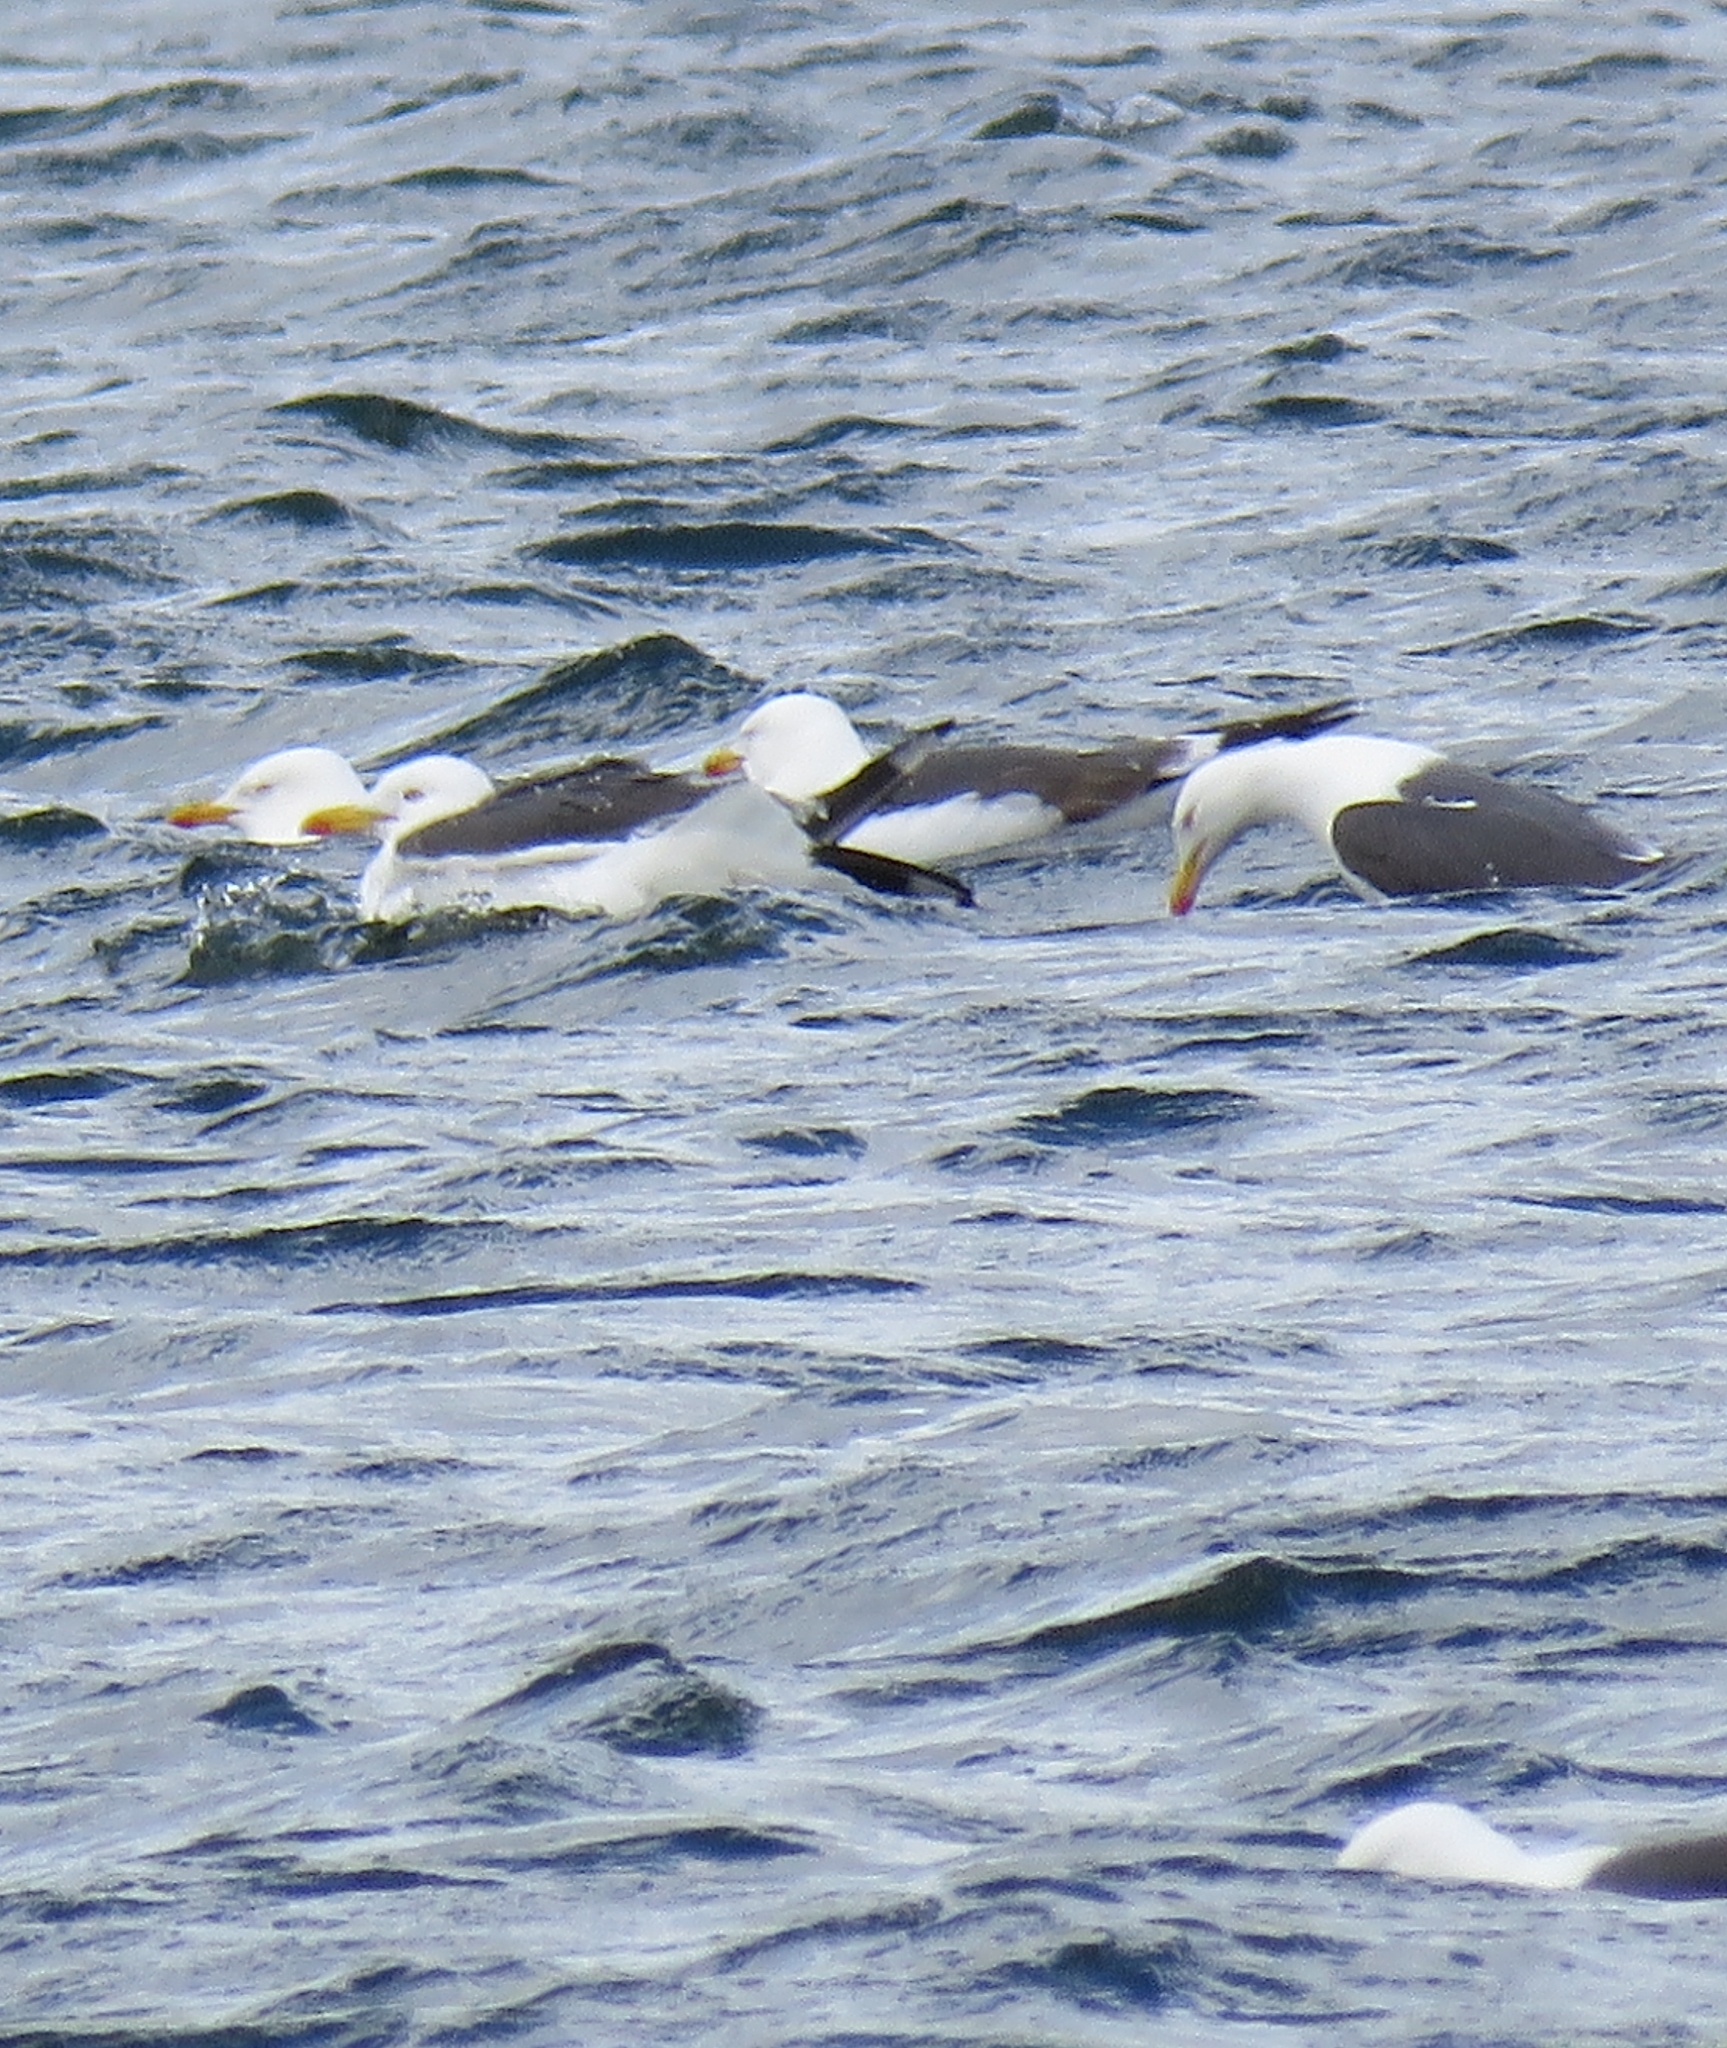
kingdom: Animalia
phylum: Chordata
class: Aves
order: Charadriiformes
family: Laridae
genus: Larus
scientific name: Larus fuscus
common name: Lesser black-backed gull
